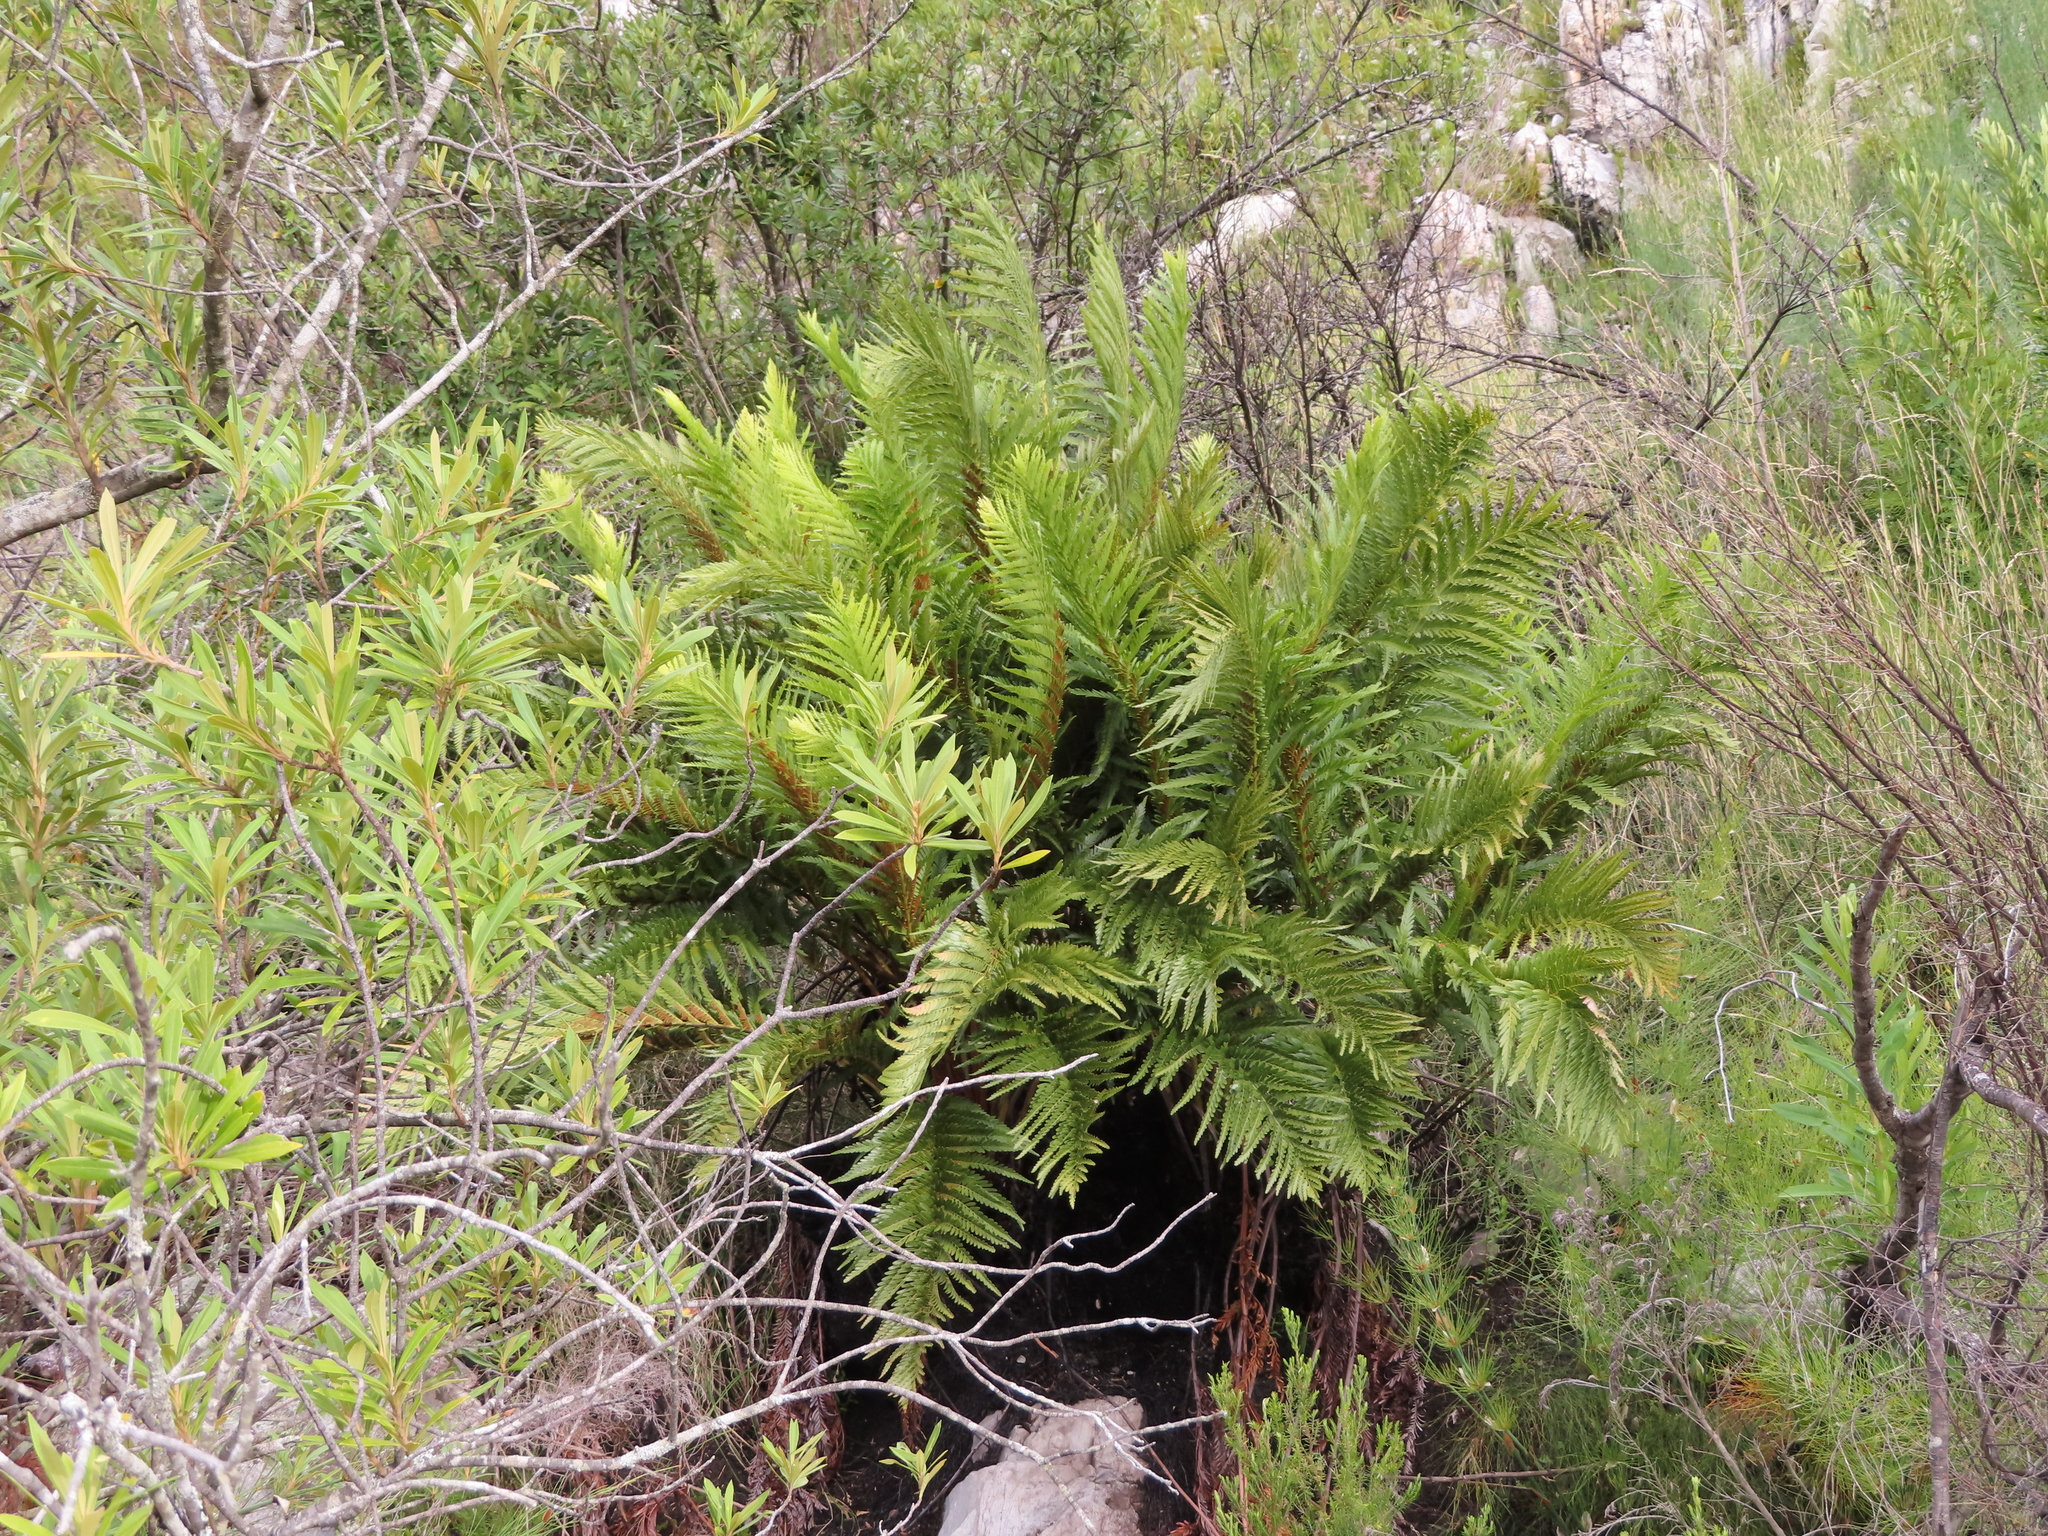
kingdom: Plantae
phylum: Tracheophyta
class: Polypodiopsida
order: Osmundales
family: Osmundaceae
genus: Todea
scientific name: Todea barbara
